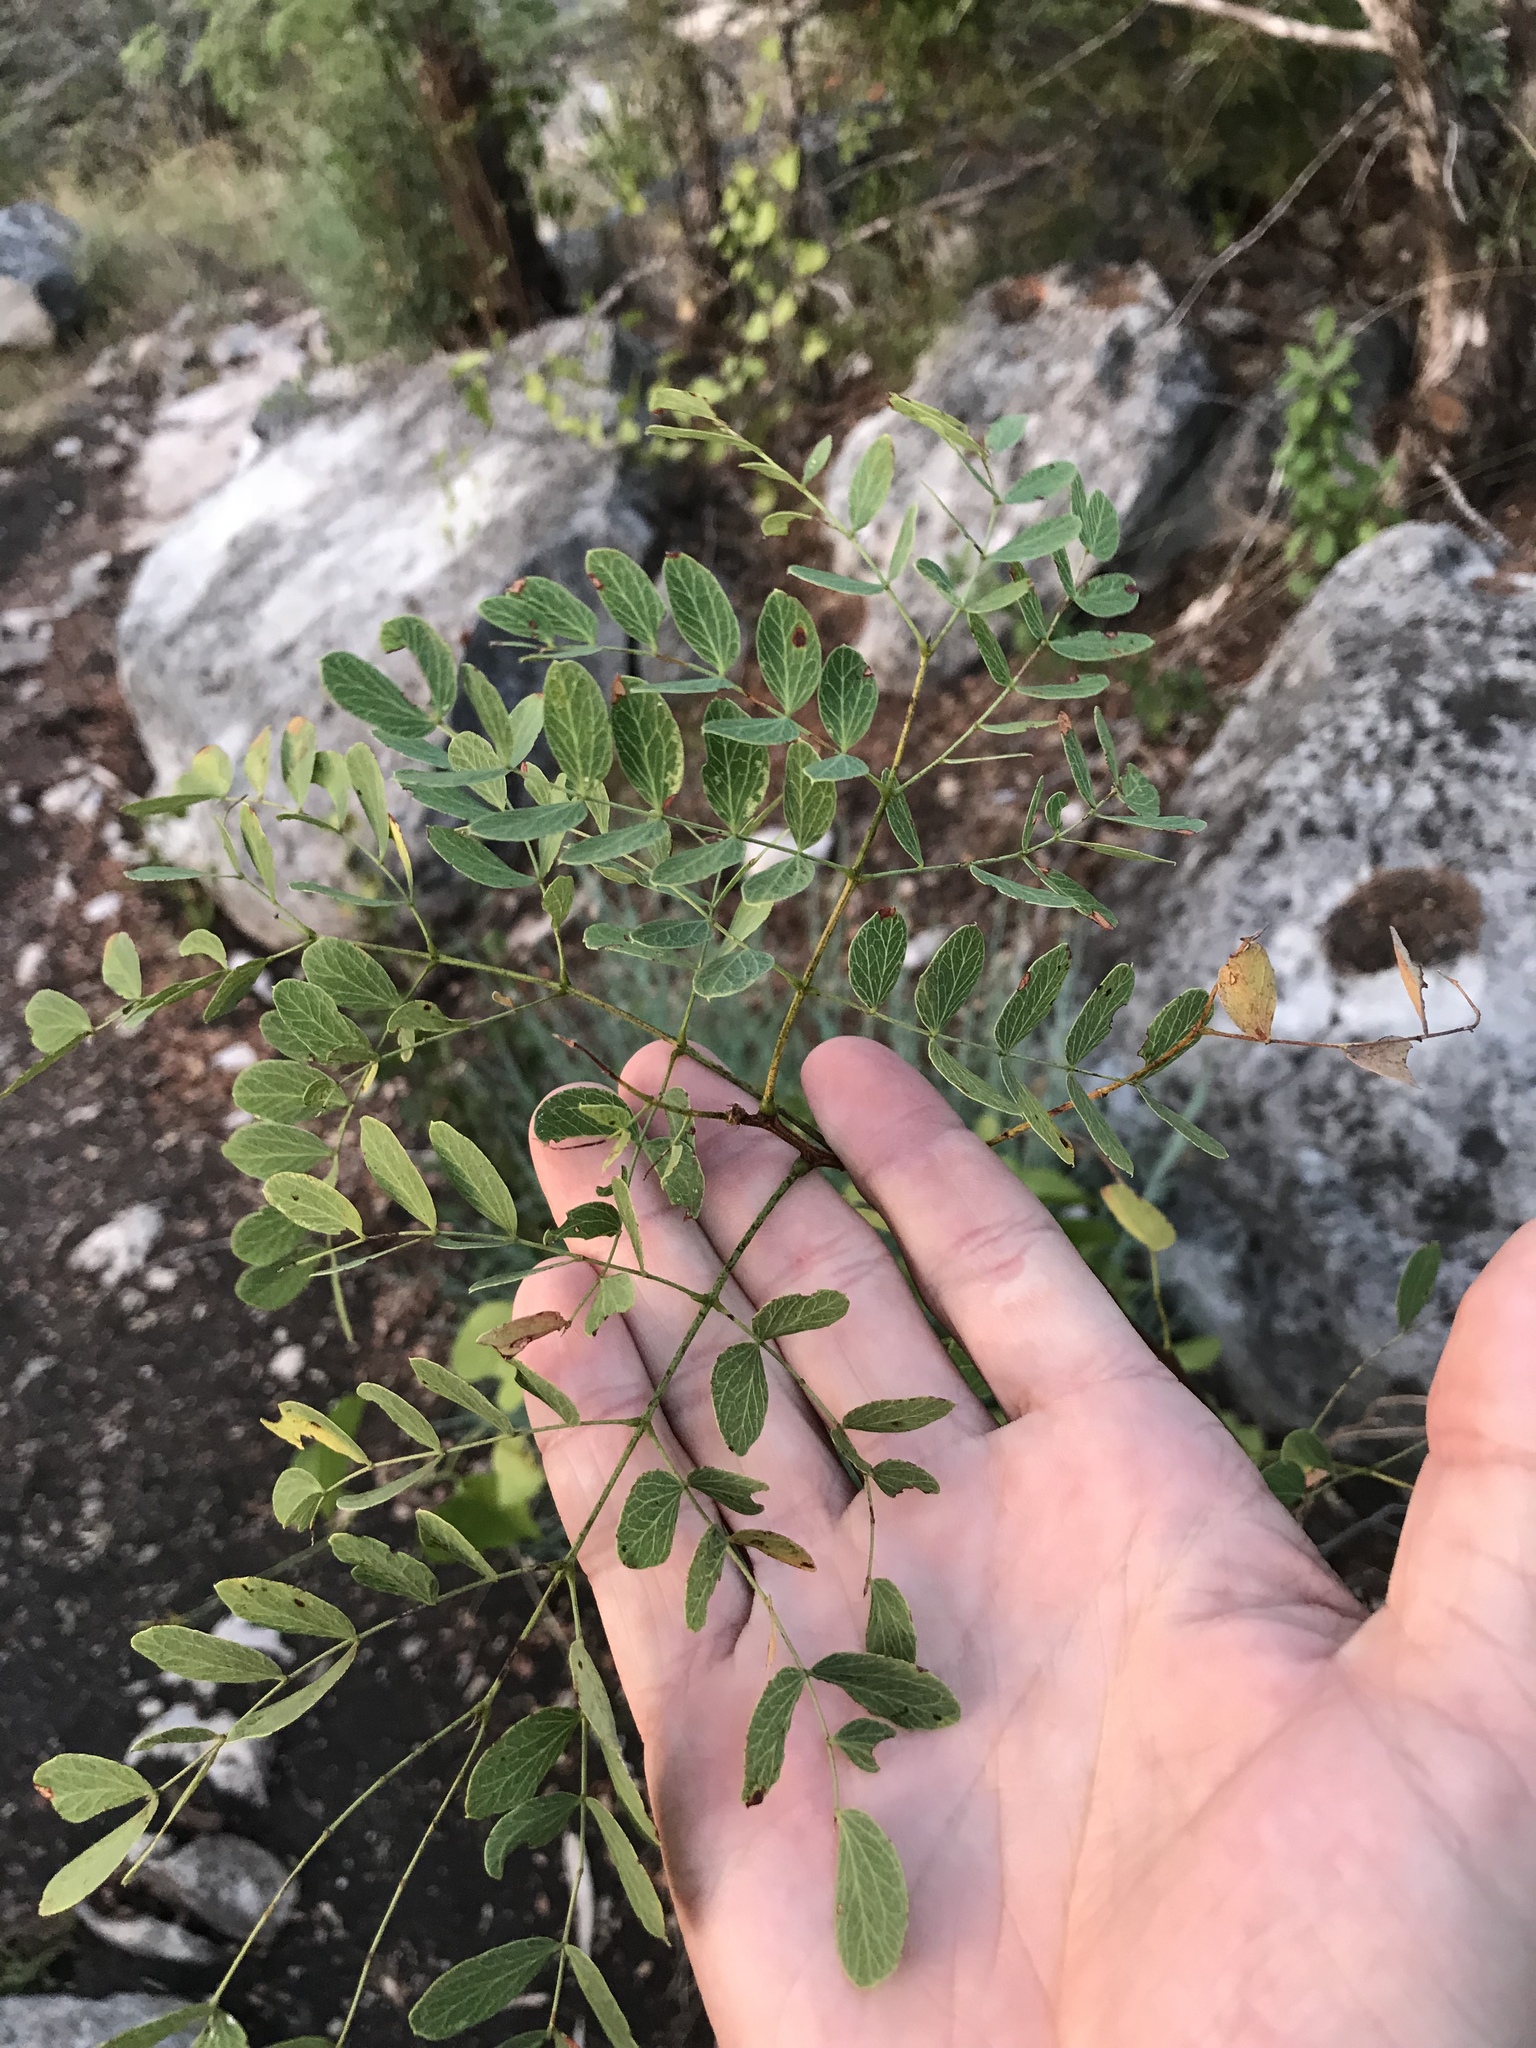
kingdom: Plantae
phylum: Tracheophyta
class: Magnoliopsida
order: Fabales
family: Fabaceae
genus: Leucaena
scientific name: Leucaena retusa
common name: Littleleaf leadtree
